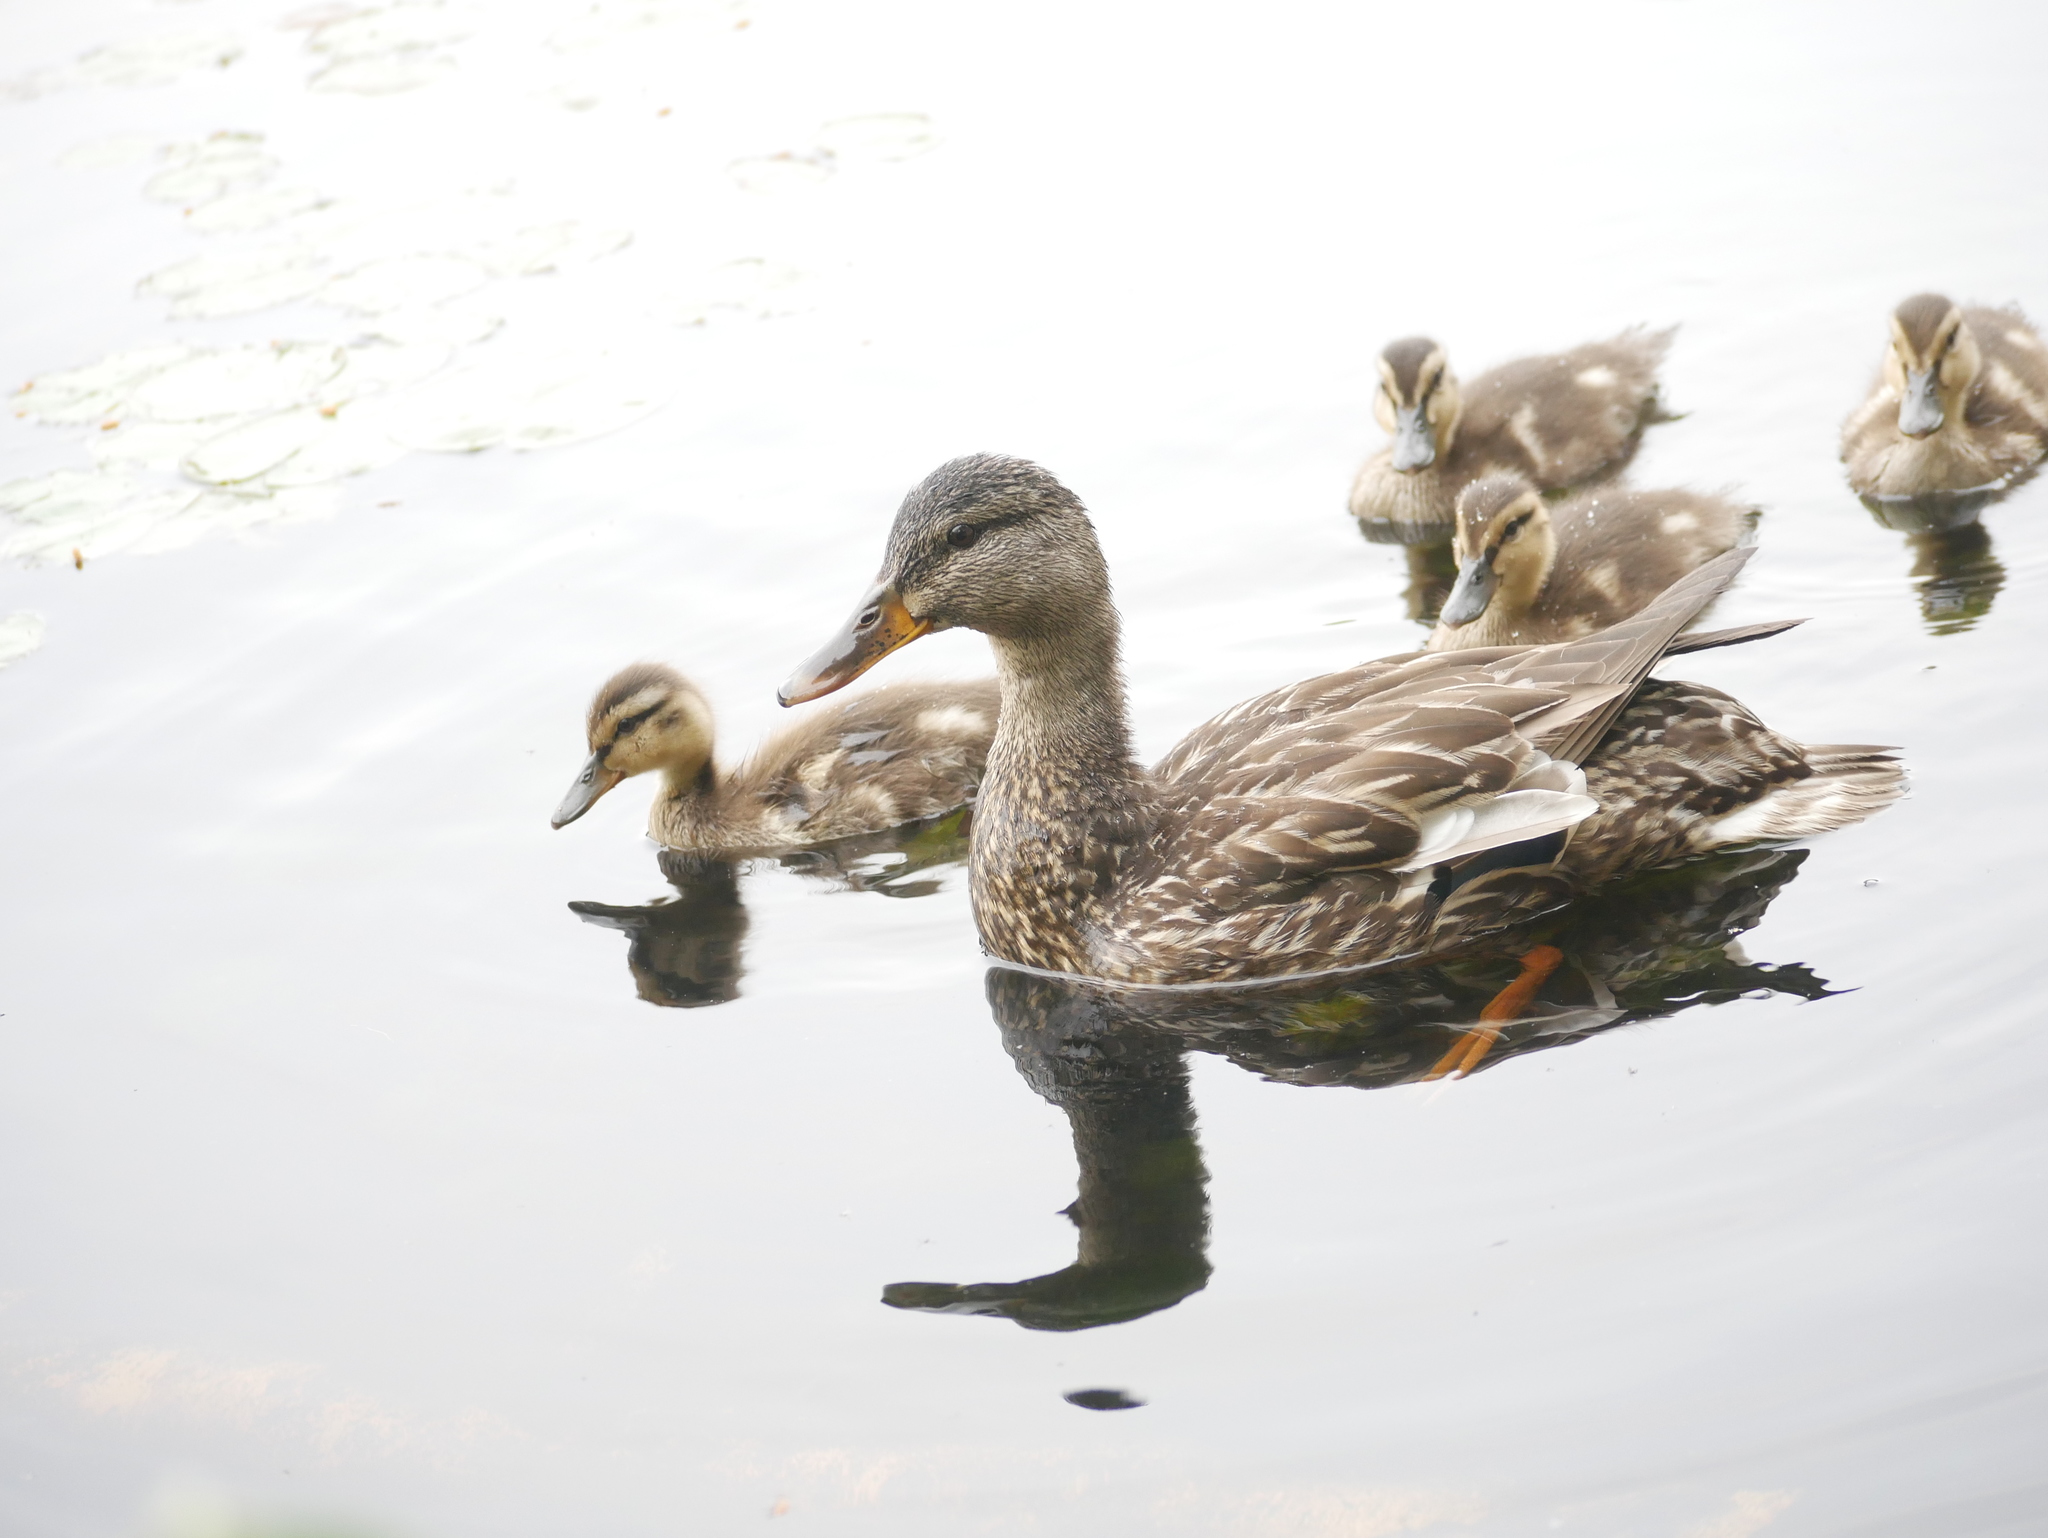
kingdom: Animalia
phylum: Chordata
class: Aves
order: Anseriformes
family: Anatidae
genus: Anas
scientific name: Anas platyrhynchos
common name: Mallard
